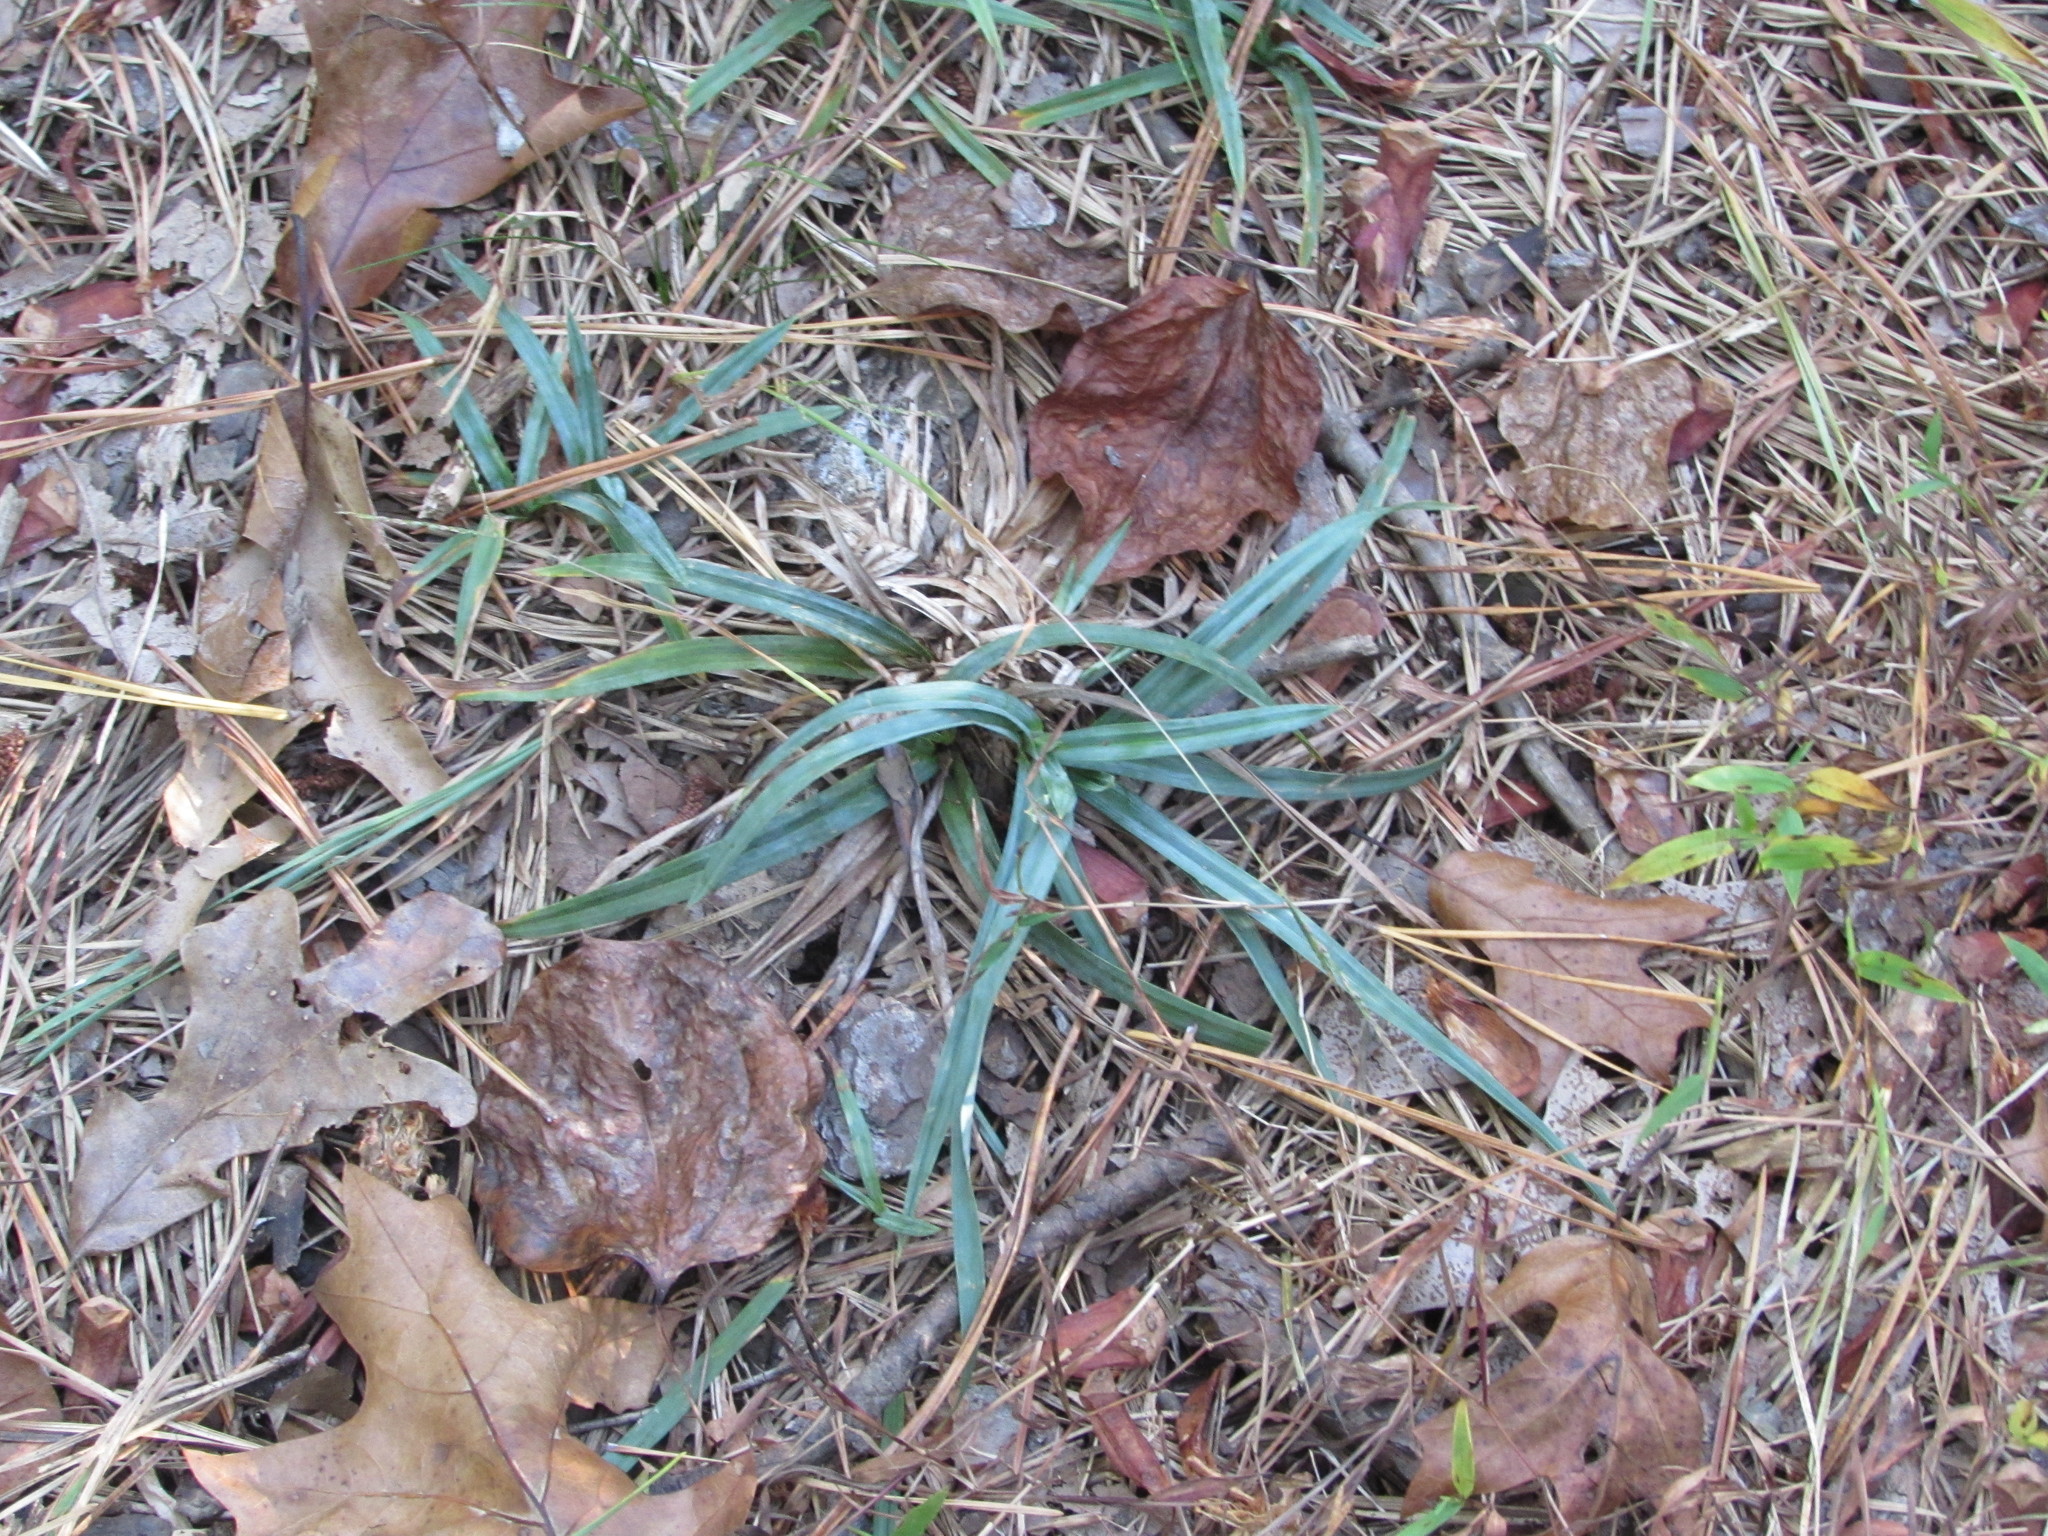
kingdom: Plantae
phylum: Tracheophyta
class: Liliopsida
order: Poales
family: Cyperaceae
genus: Carex
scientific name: Carex glaucodea
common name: Blue sedge
